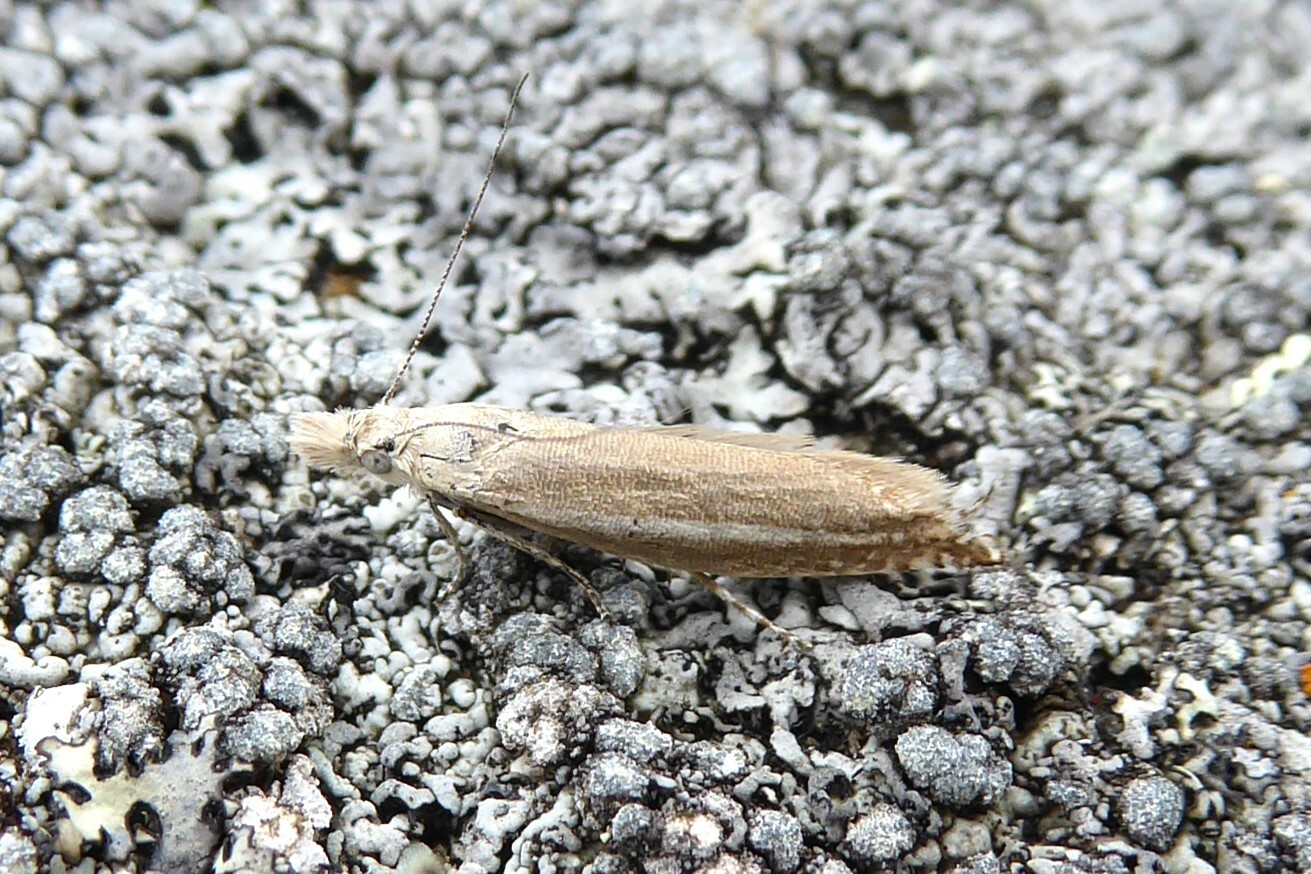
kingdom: Animalia
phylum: Arthropoda
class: Insecta
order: Lepidoptera
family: Glyphipterigidae
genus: Glyphipterix
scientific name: Glyphipterix barbata
